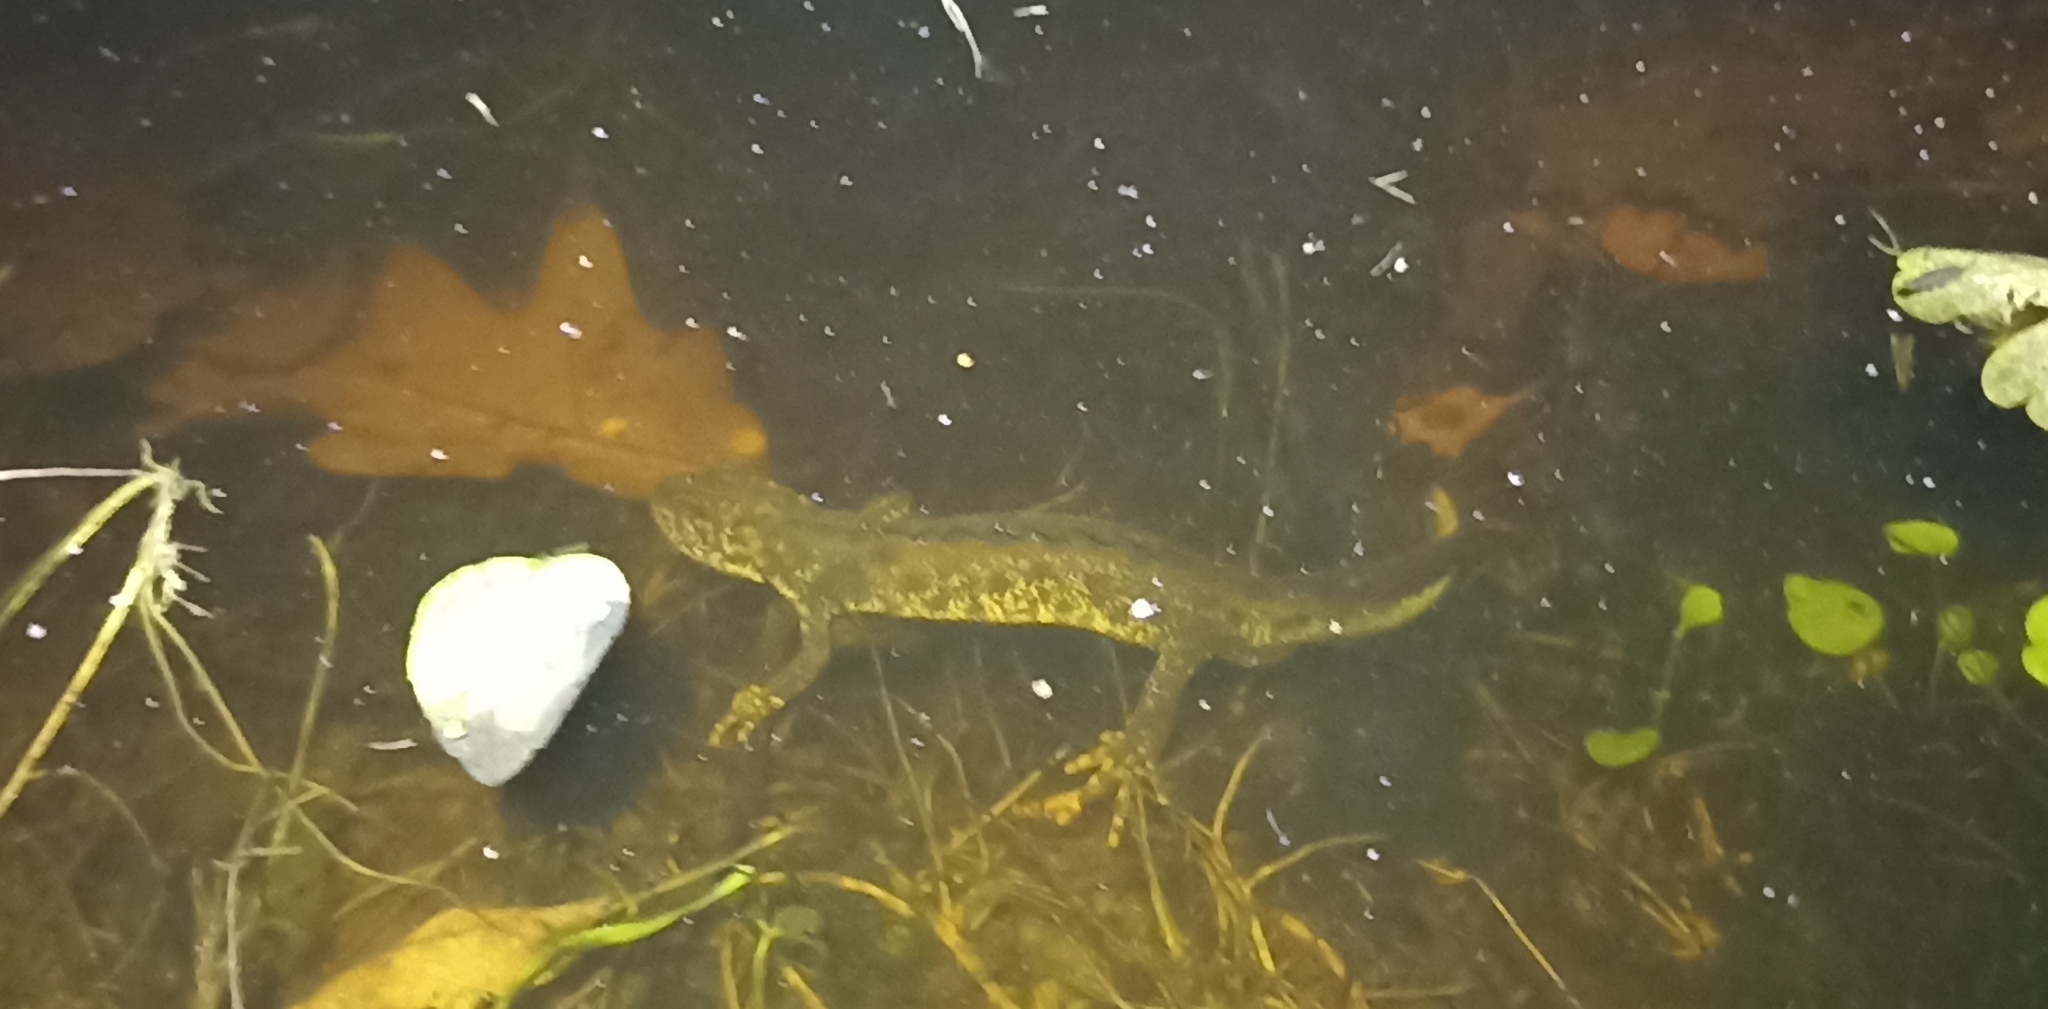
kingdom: Animalia
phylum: Chordata
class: Amphibia
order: Caudata
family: Salamandridae
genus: Triturus
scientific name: Triturus cristatus
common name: Crested newt
